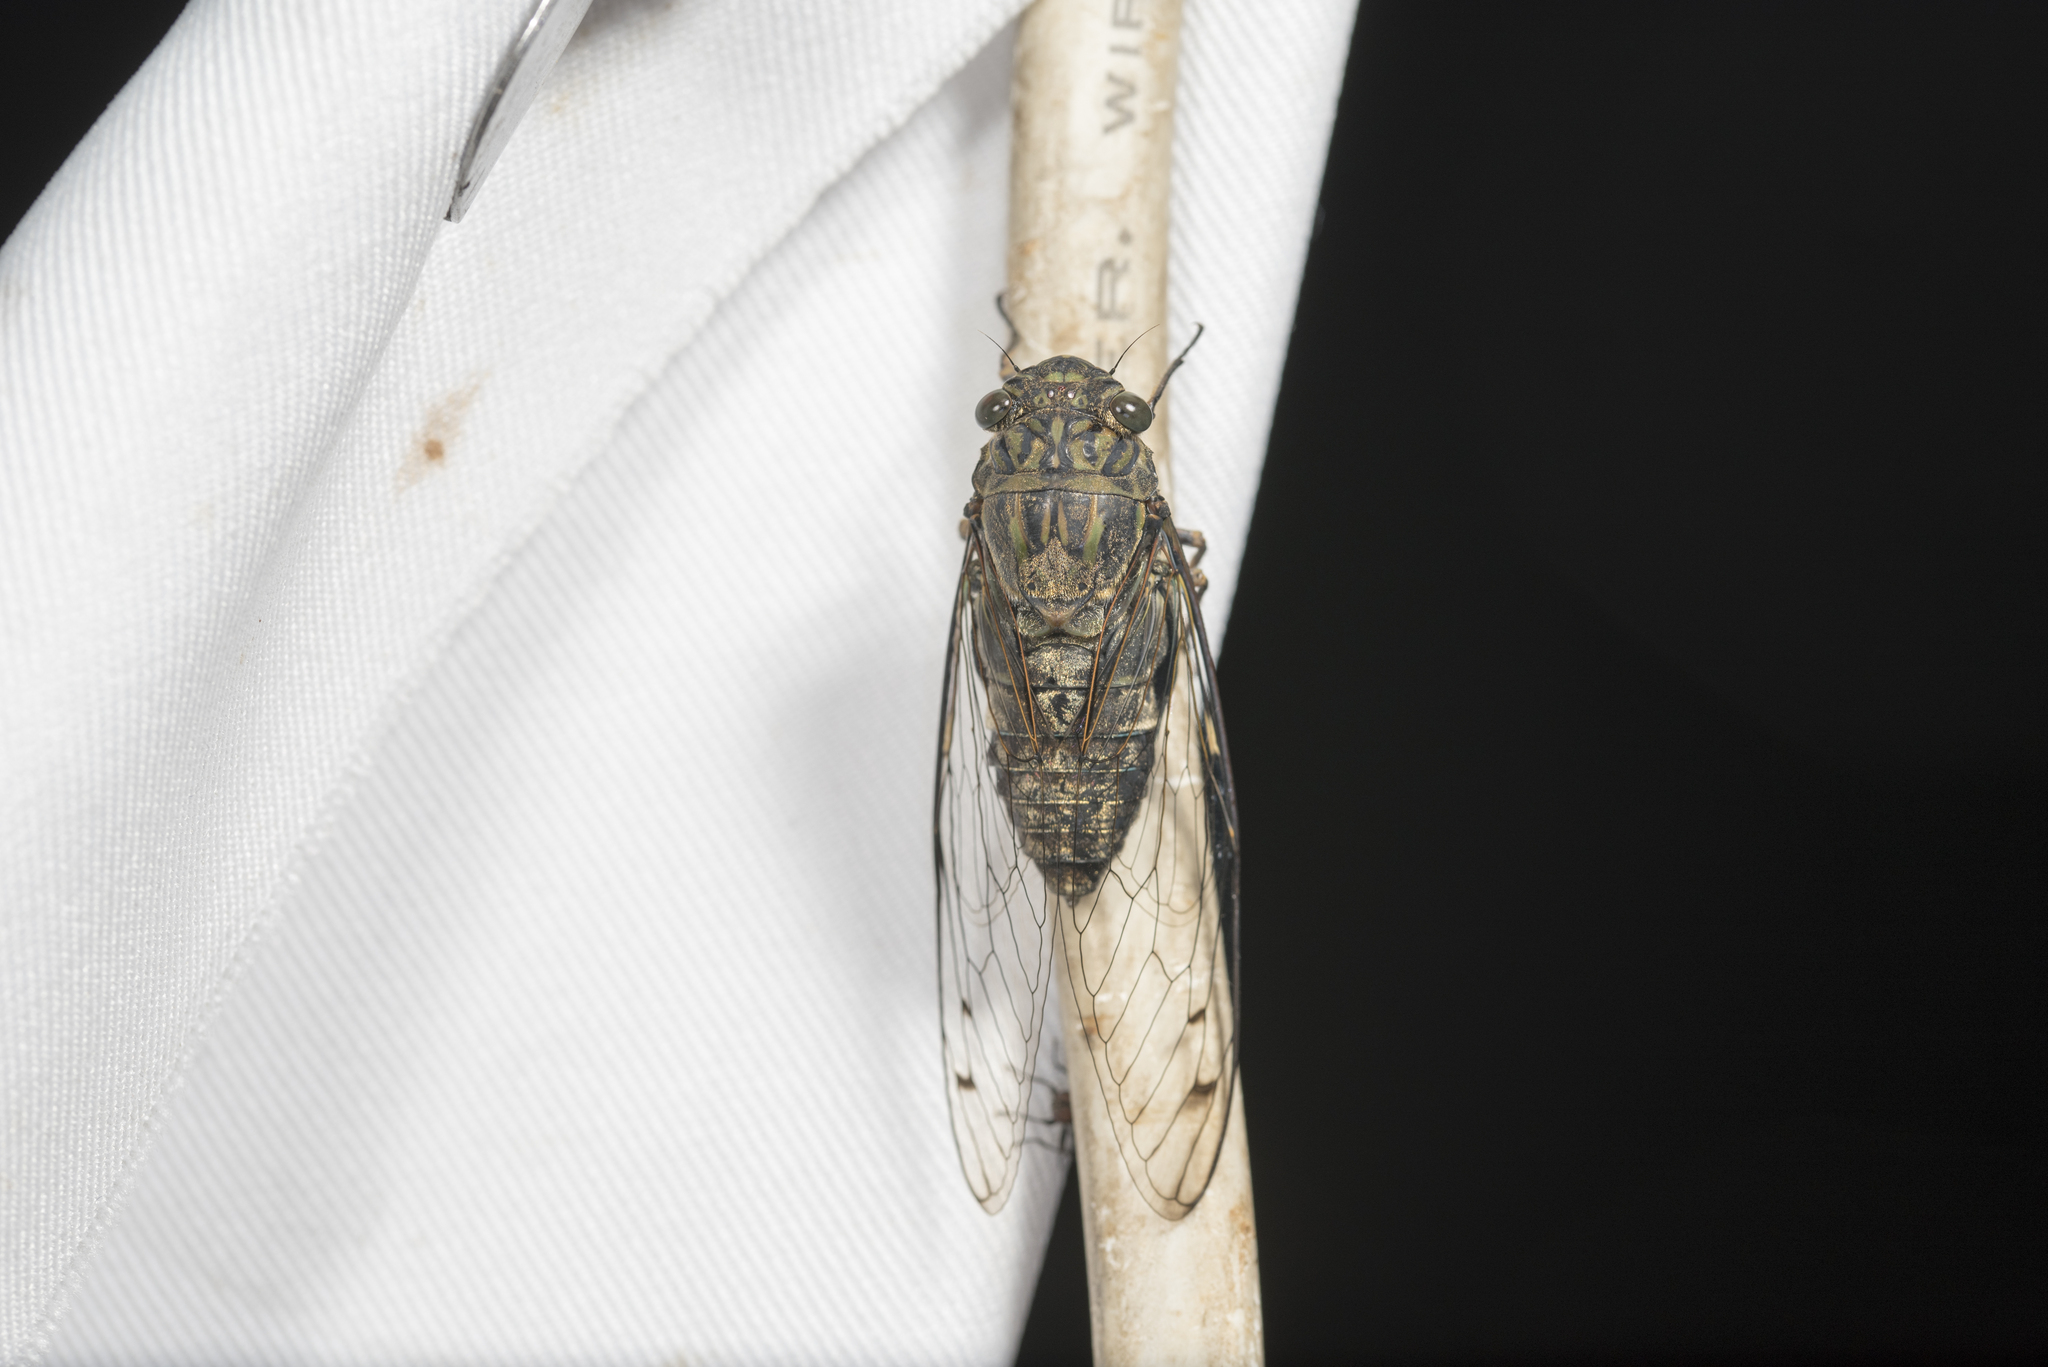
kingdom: Animalia
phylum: Arthropoda
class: Insecta
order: Hemiptera
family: Cicadidae
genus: Meimuna
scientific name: Meimuna opalifera
